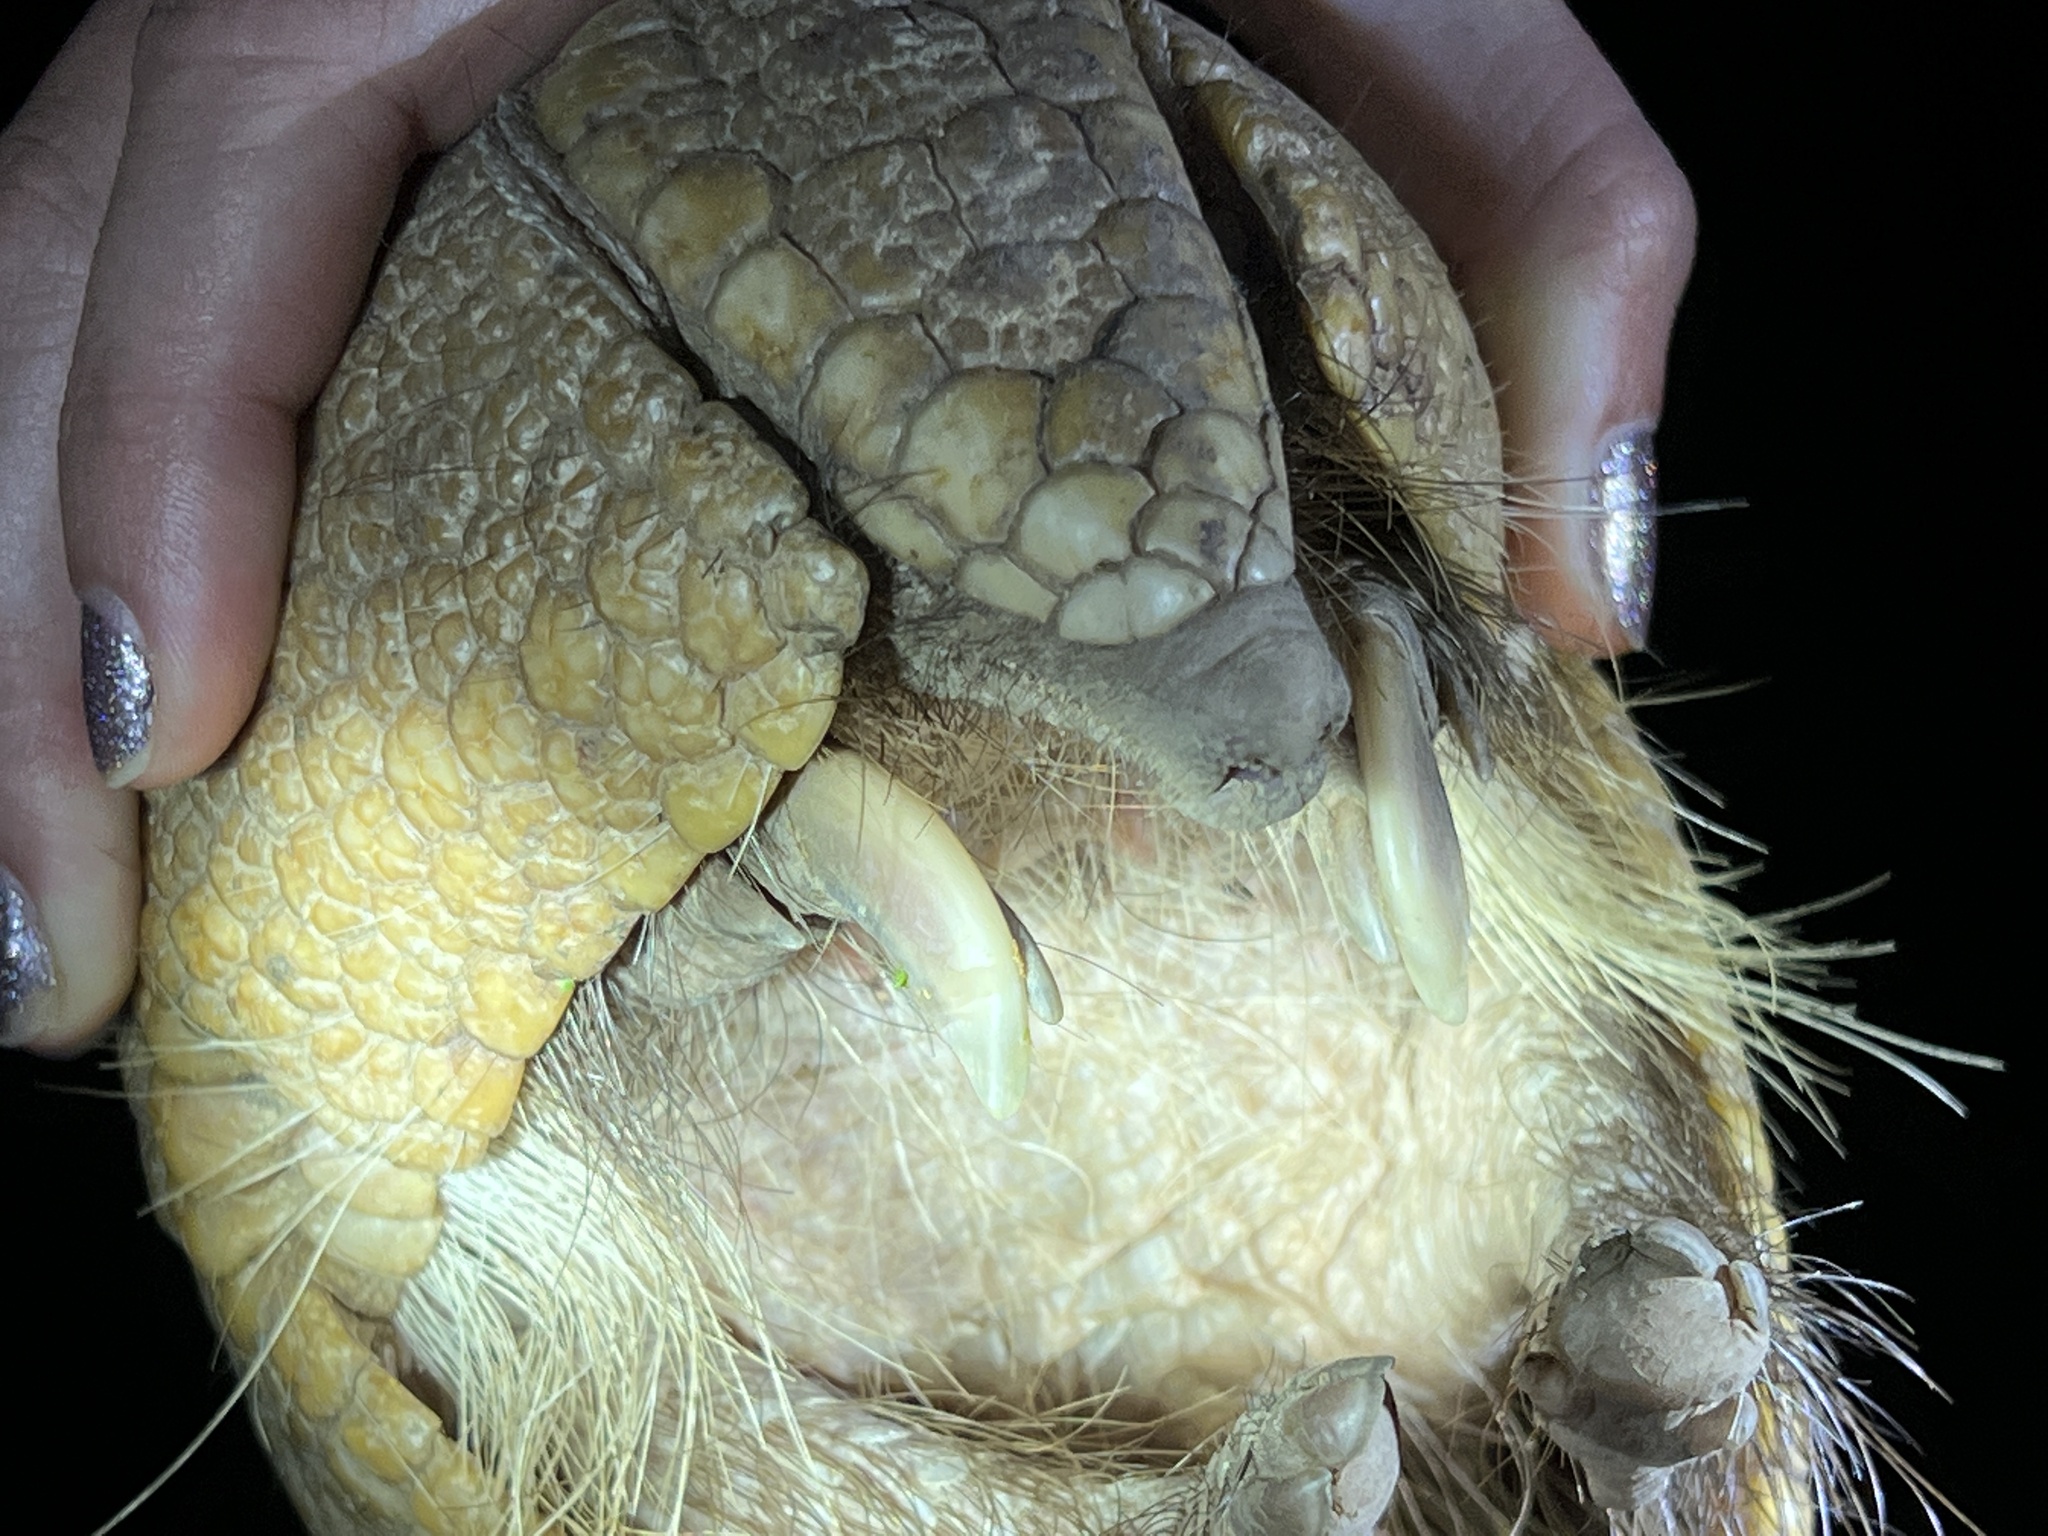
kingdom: Animalia
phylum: Chordata
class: Mammalia
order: Cingulata
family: Dasypodidae
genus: Tolypeutes
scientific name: Tolypeutes matacus
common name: Southern three-banded armadillo
